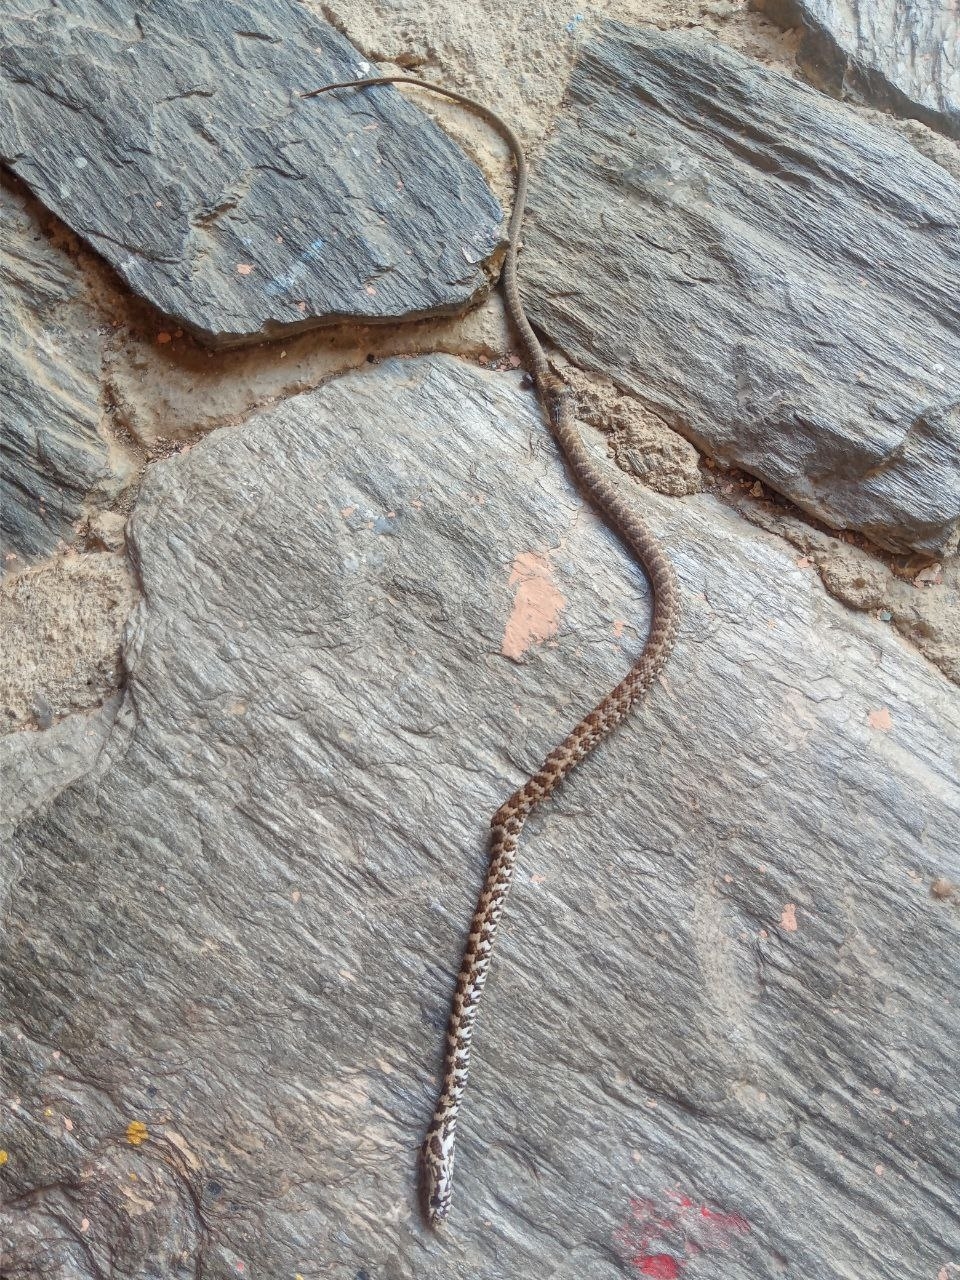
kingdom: Animalia
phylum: Chordata
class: Squamata
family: Colubridae
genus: Mastigodryas
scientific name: Mastigodryas boddaerti
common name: Boddaert's tropical racer
